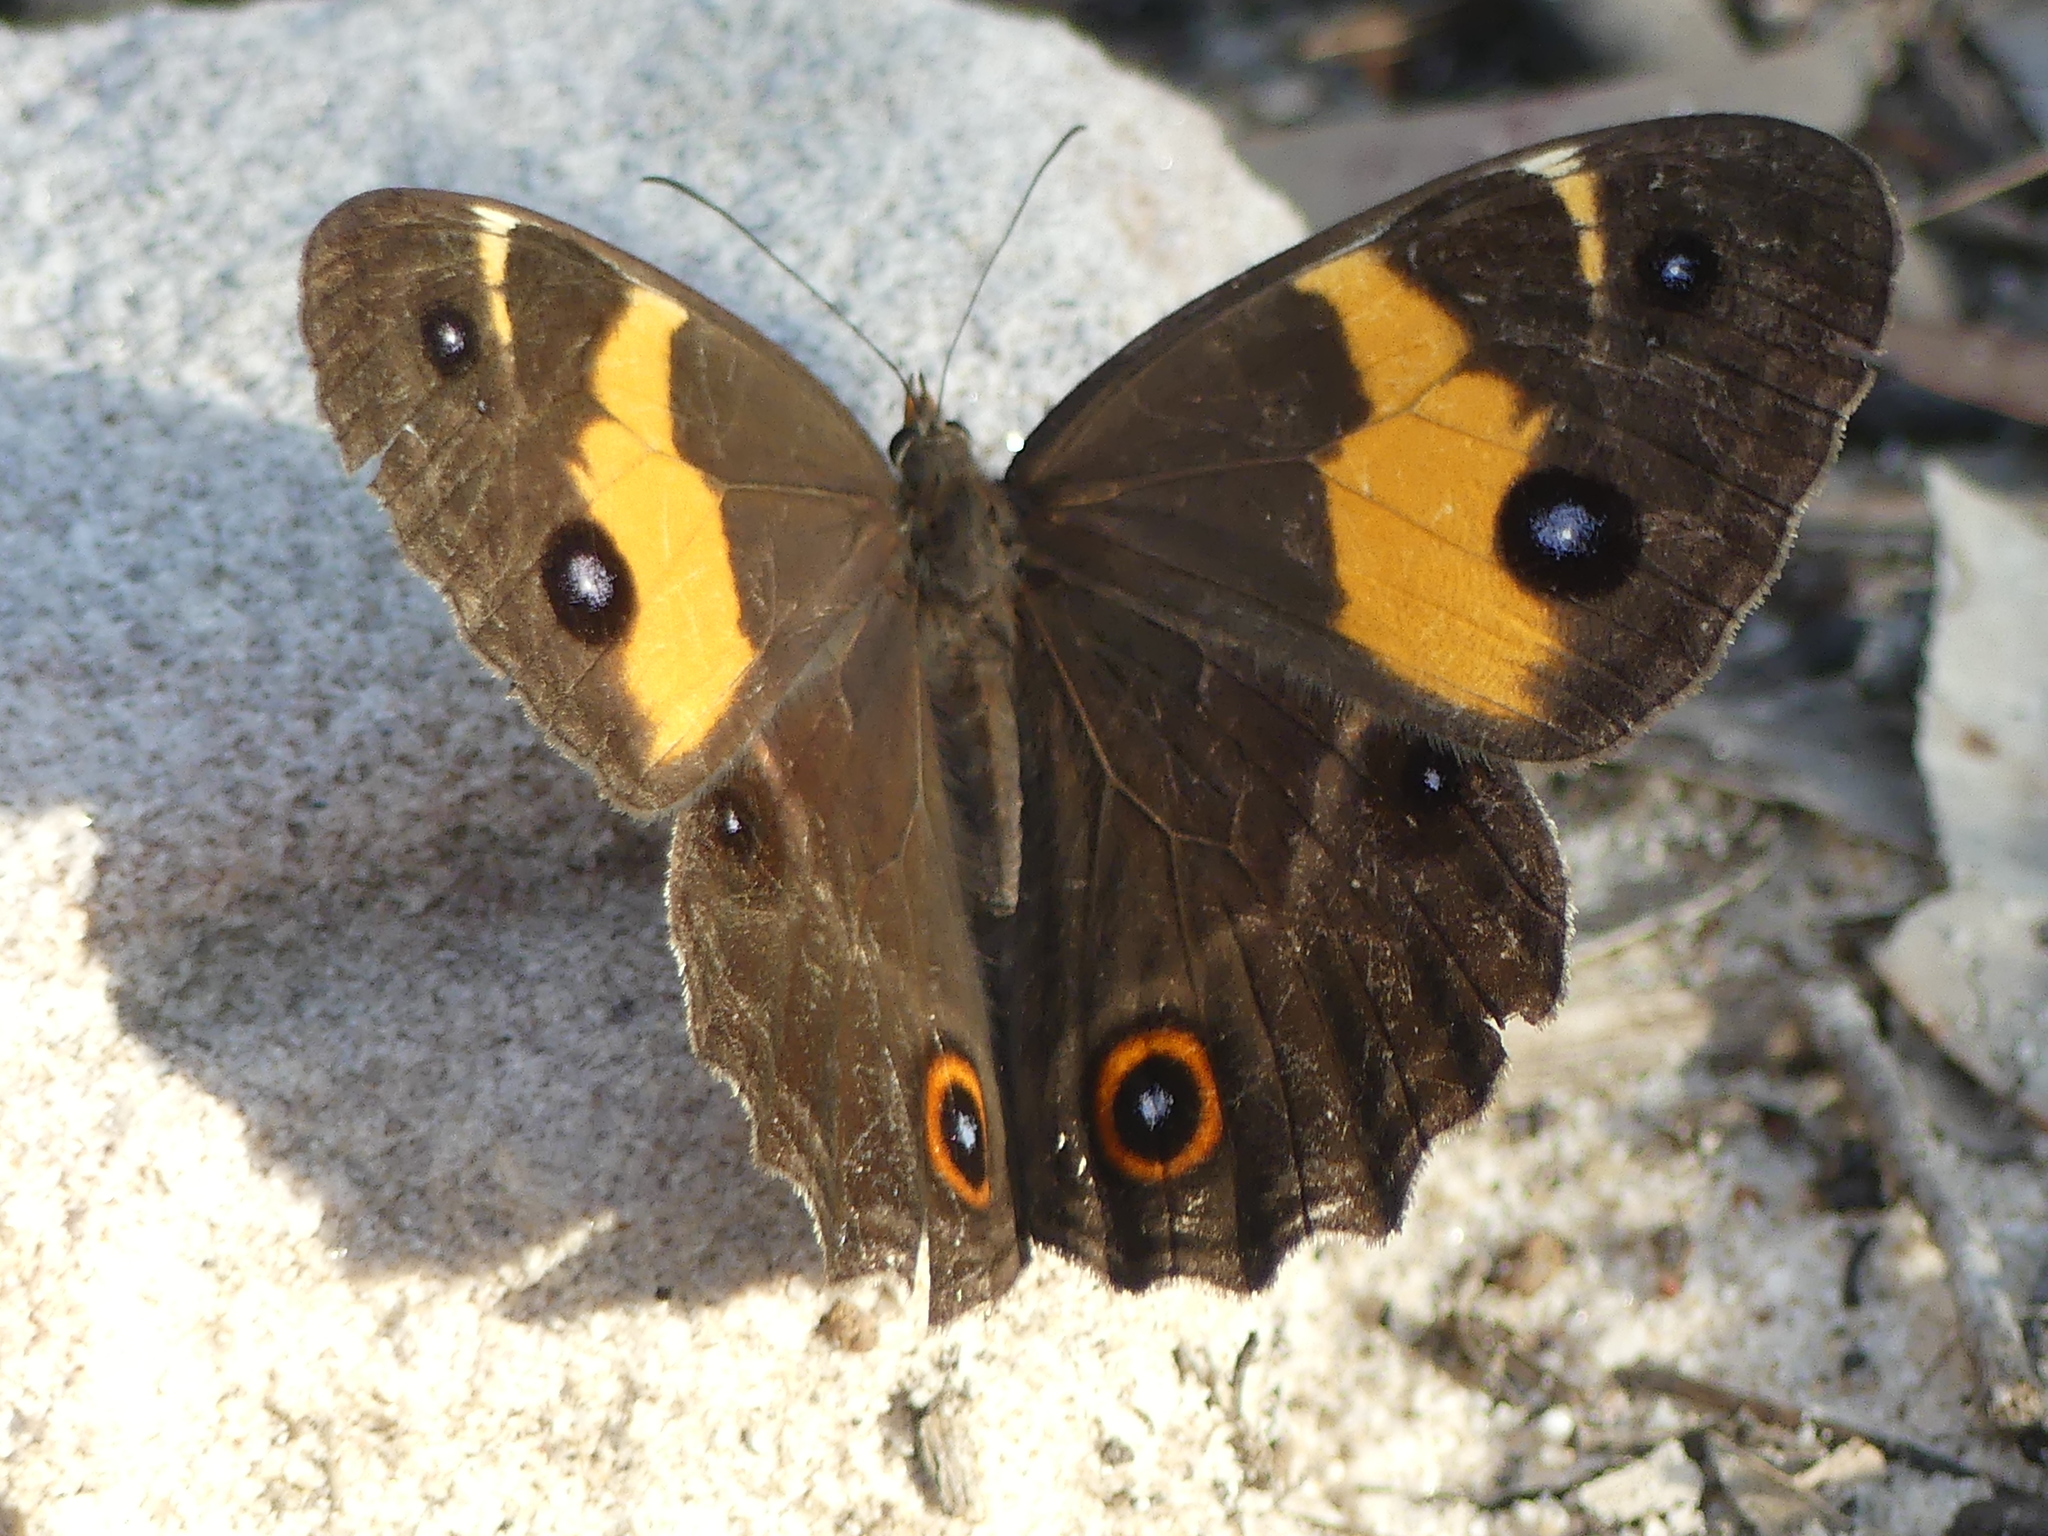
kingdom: Animalia
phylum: Arthropoda
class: Insecta
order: Lepidoptera
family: Nymphalidae
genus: Tisiphone
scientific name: Tisiphone abeona
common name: Swordgrass brown
